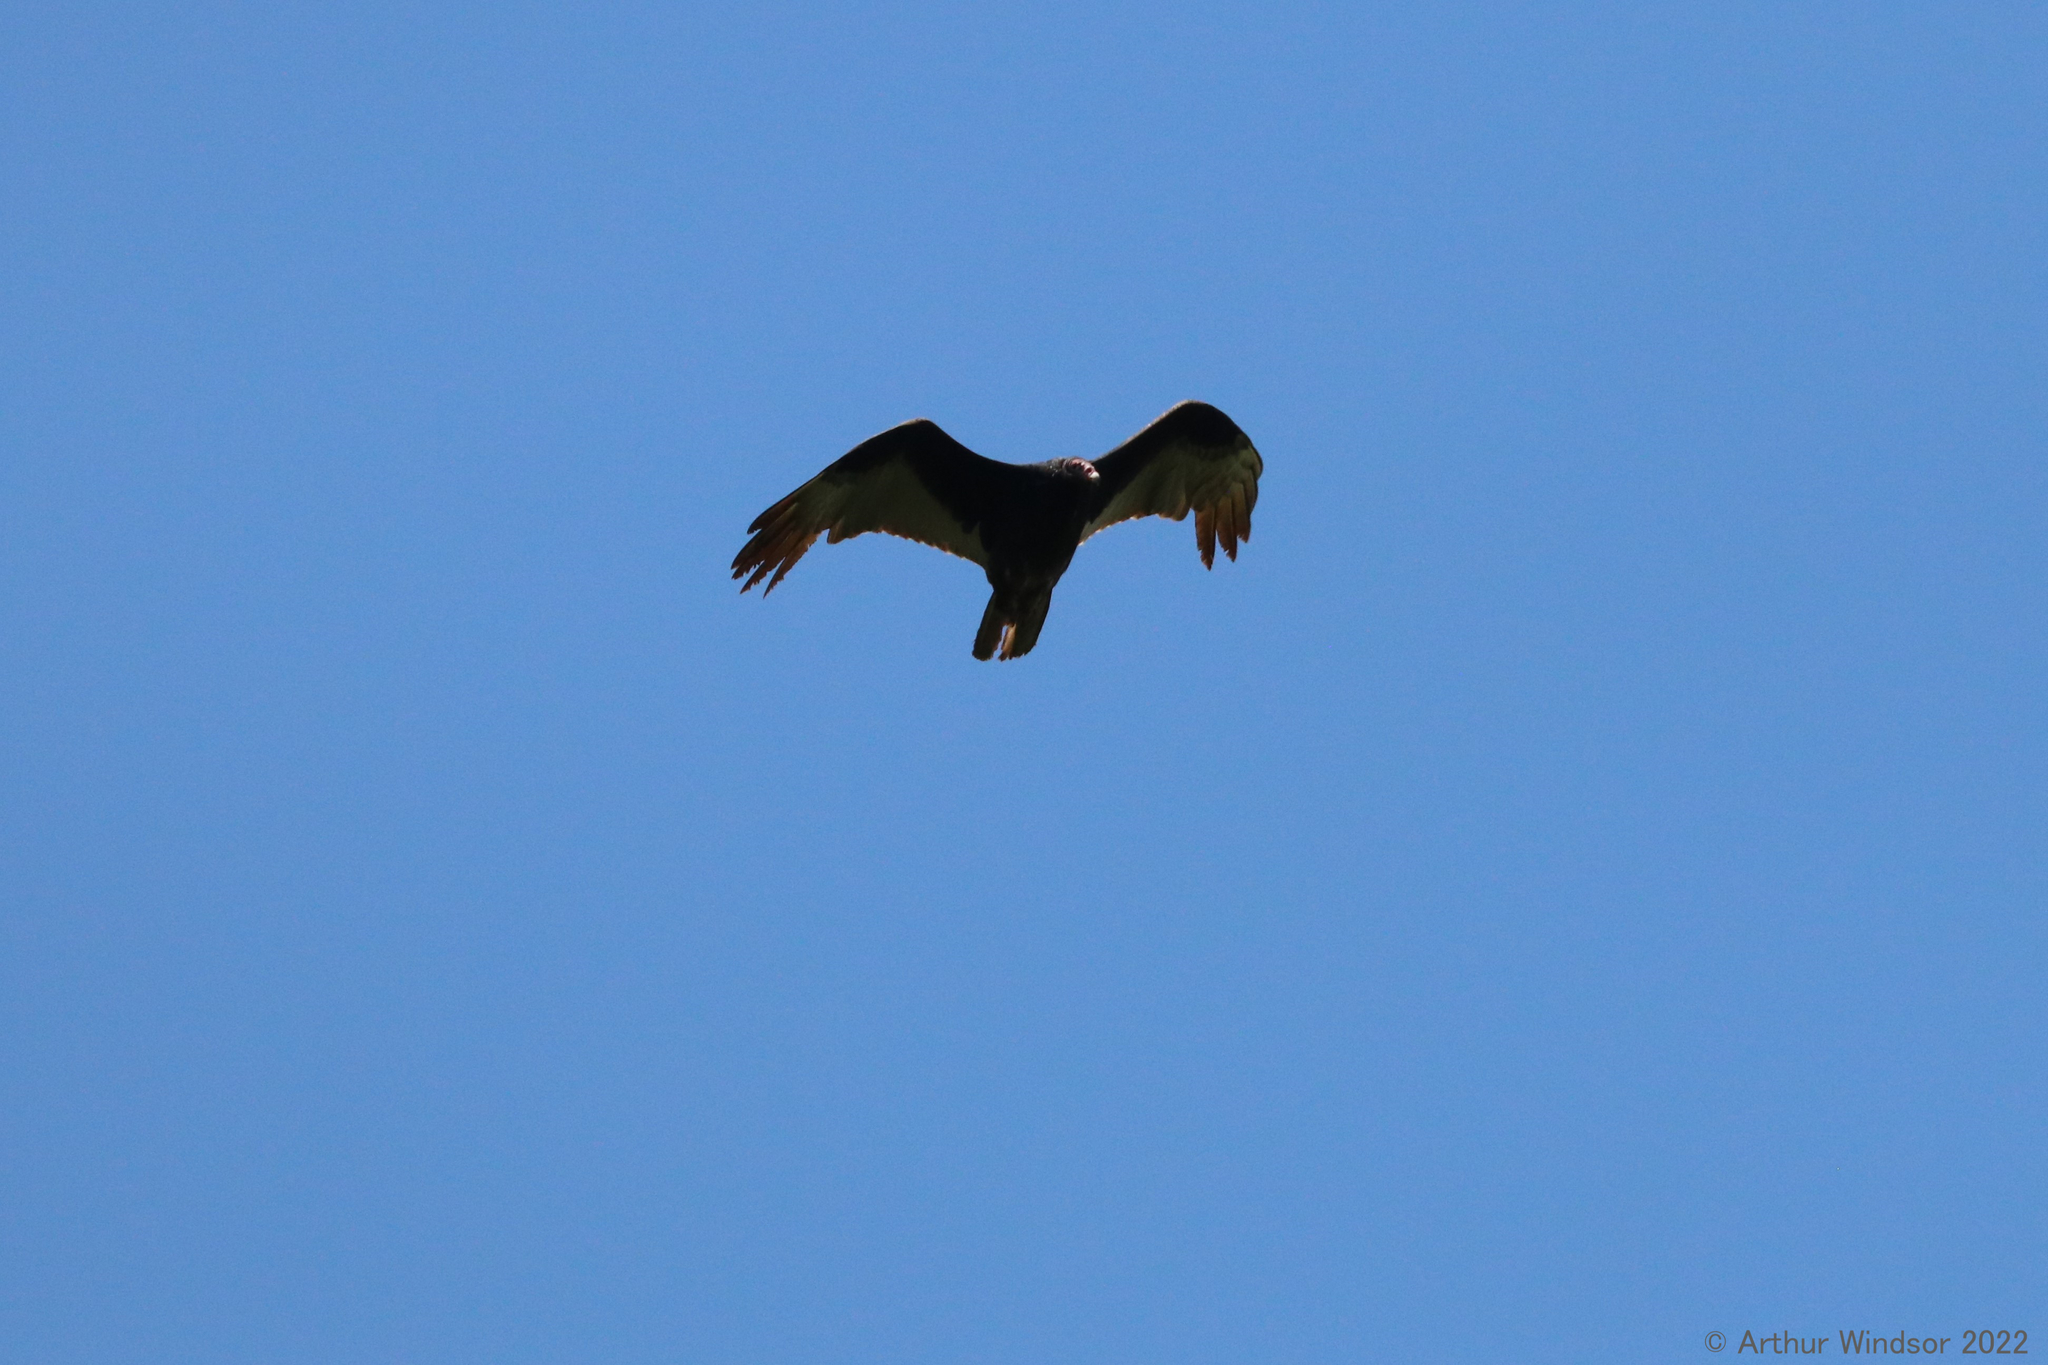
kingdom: Animalia
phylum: Chordata
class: Aves
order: Accipitriformes
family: Cathartidae
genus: Cathartes
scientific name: Cathartes aura
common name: Turkey vulture
